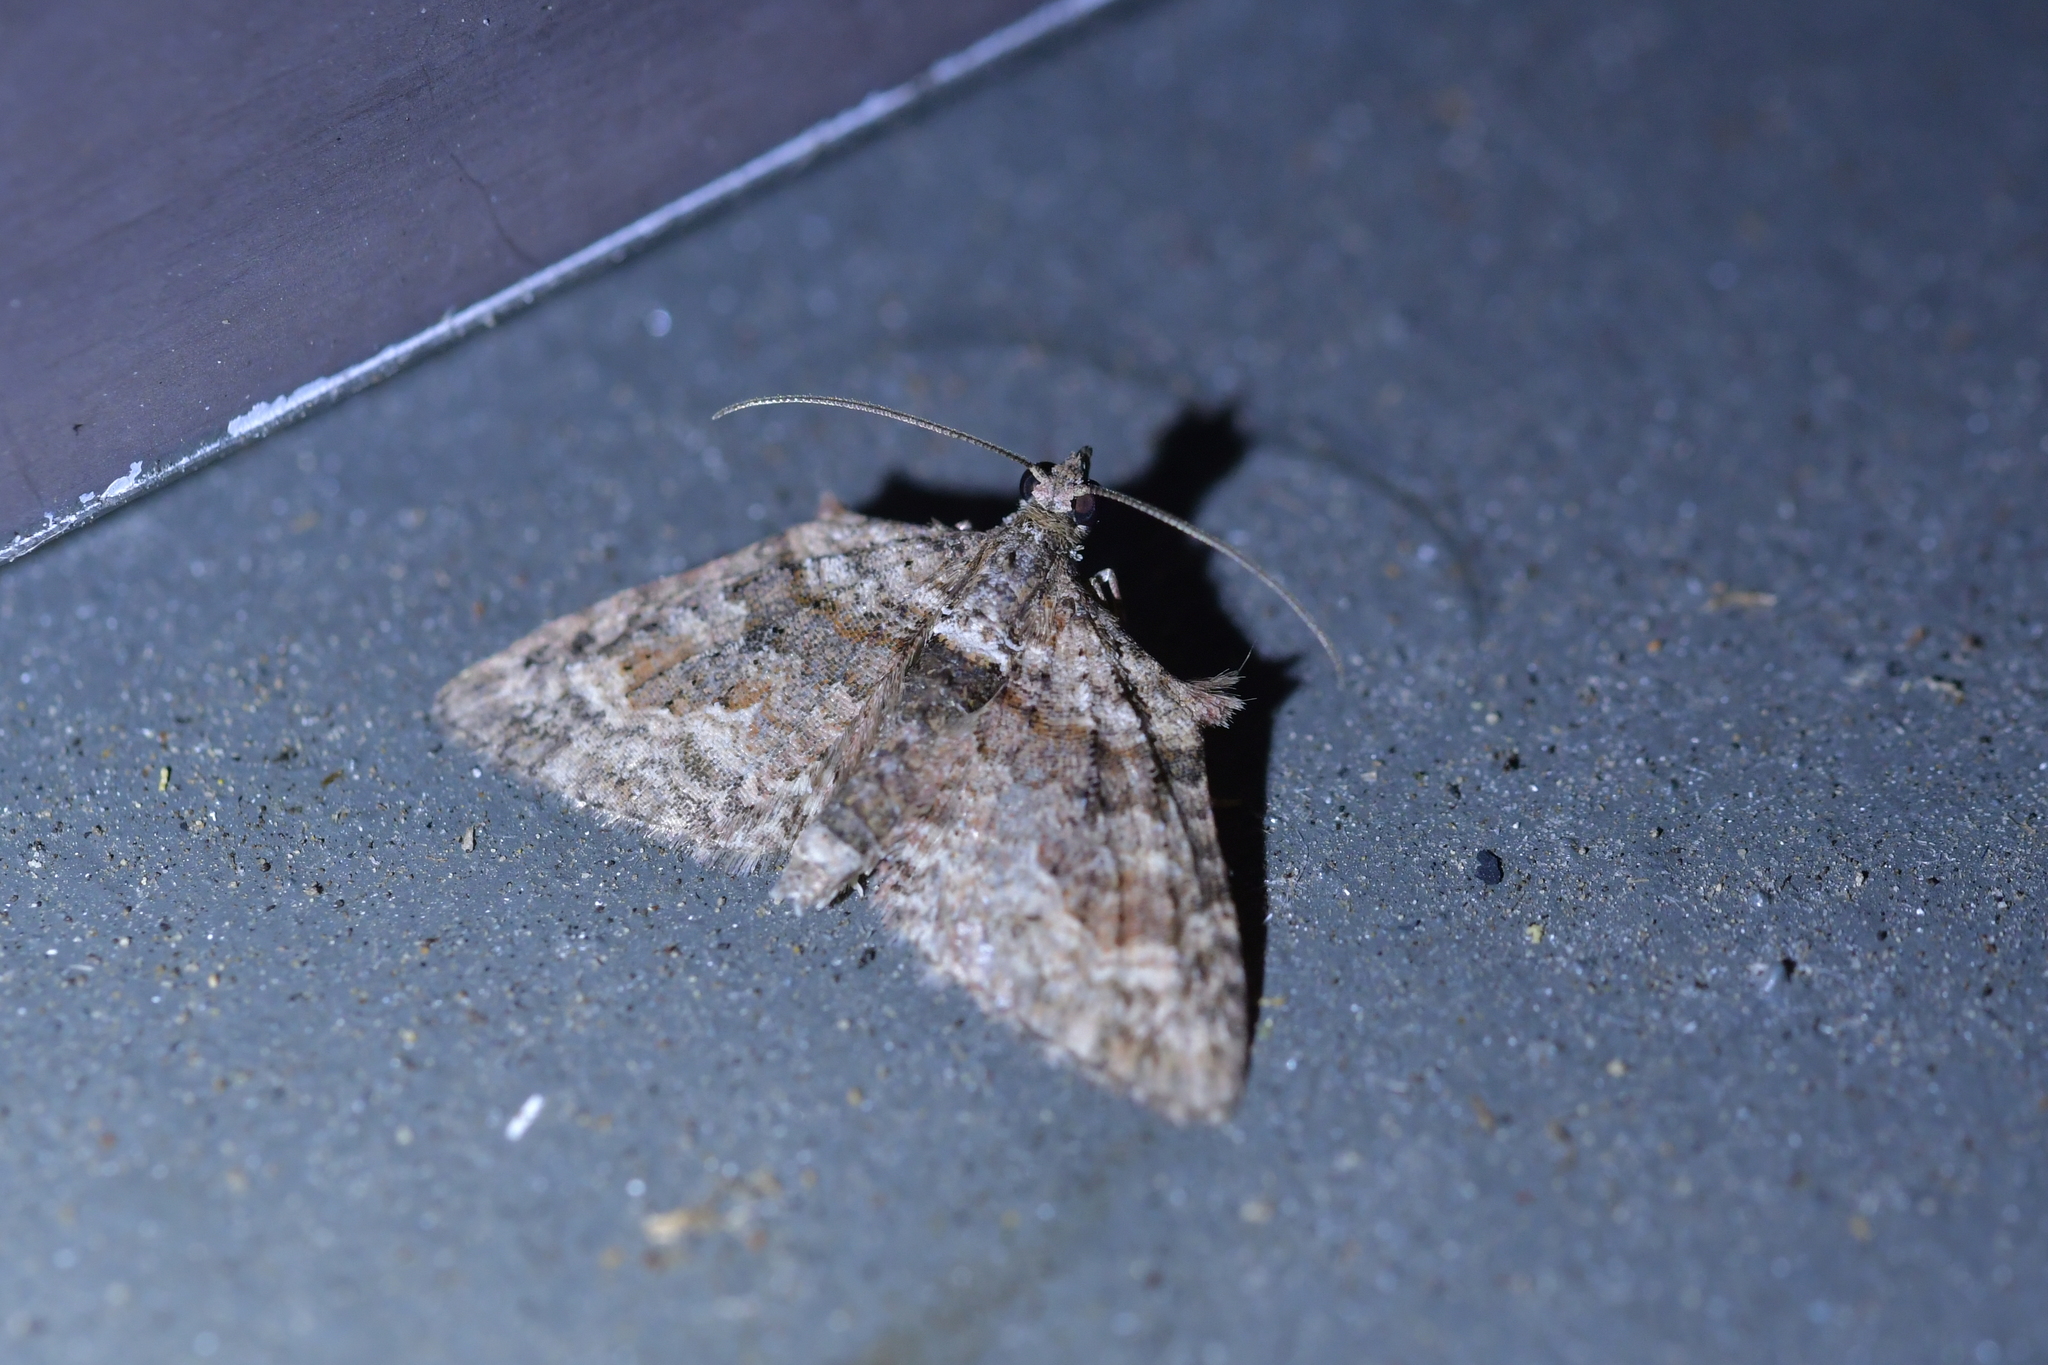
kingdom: Animalia
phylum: Arthropoda
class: Insecta
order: Lepidoptera
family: Geometridae
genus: Phrissogonus
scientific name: Phrissogonus laticostata
